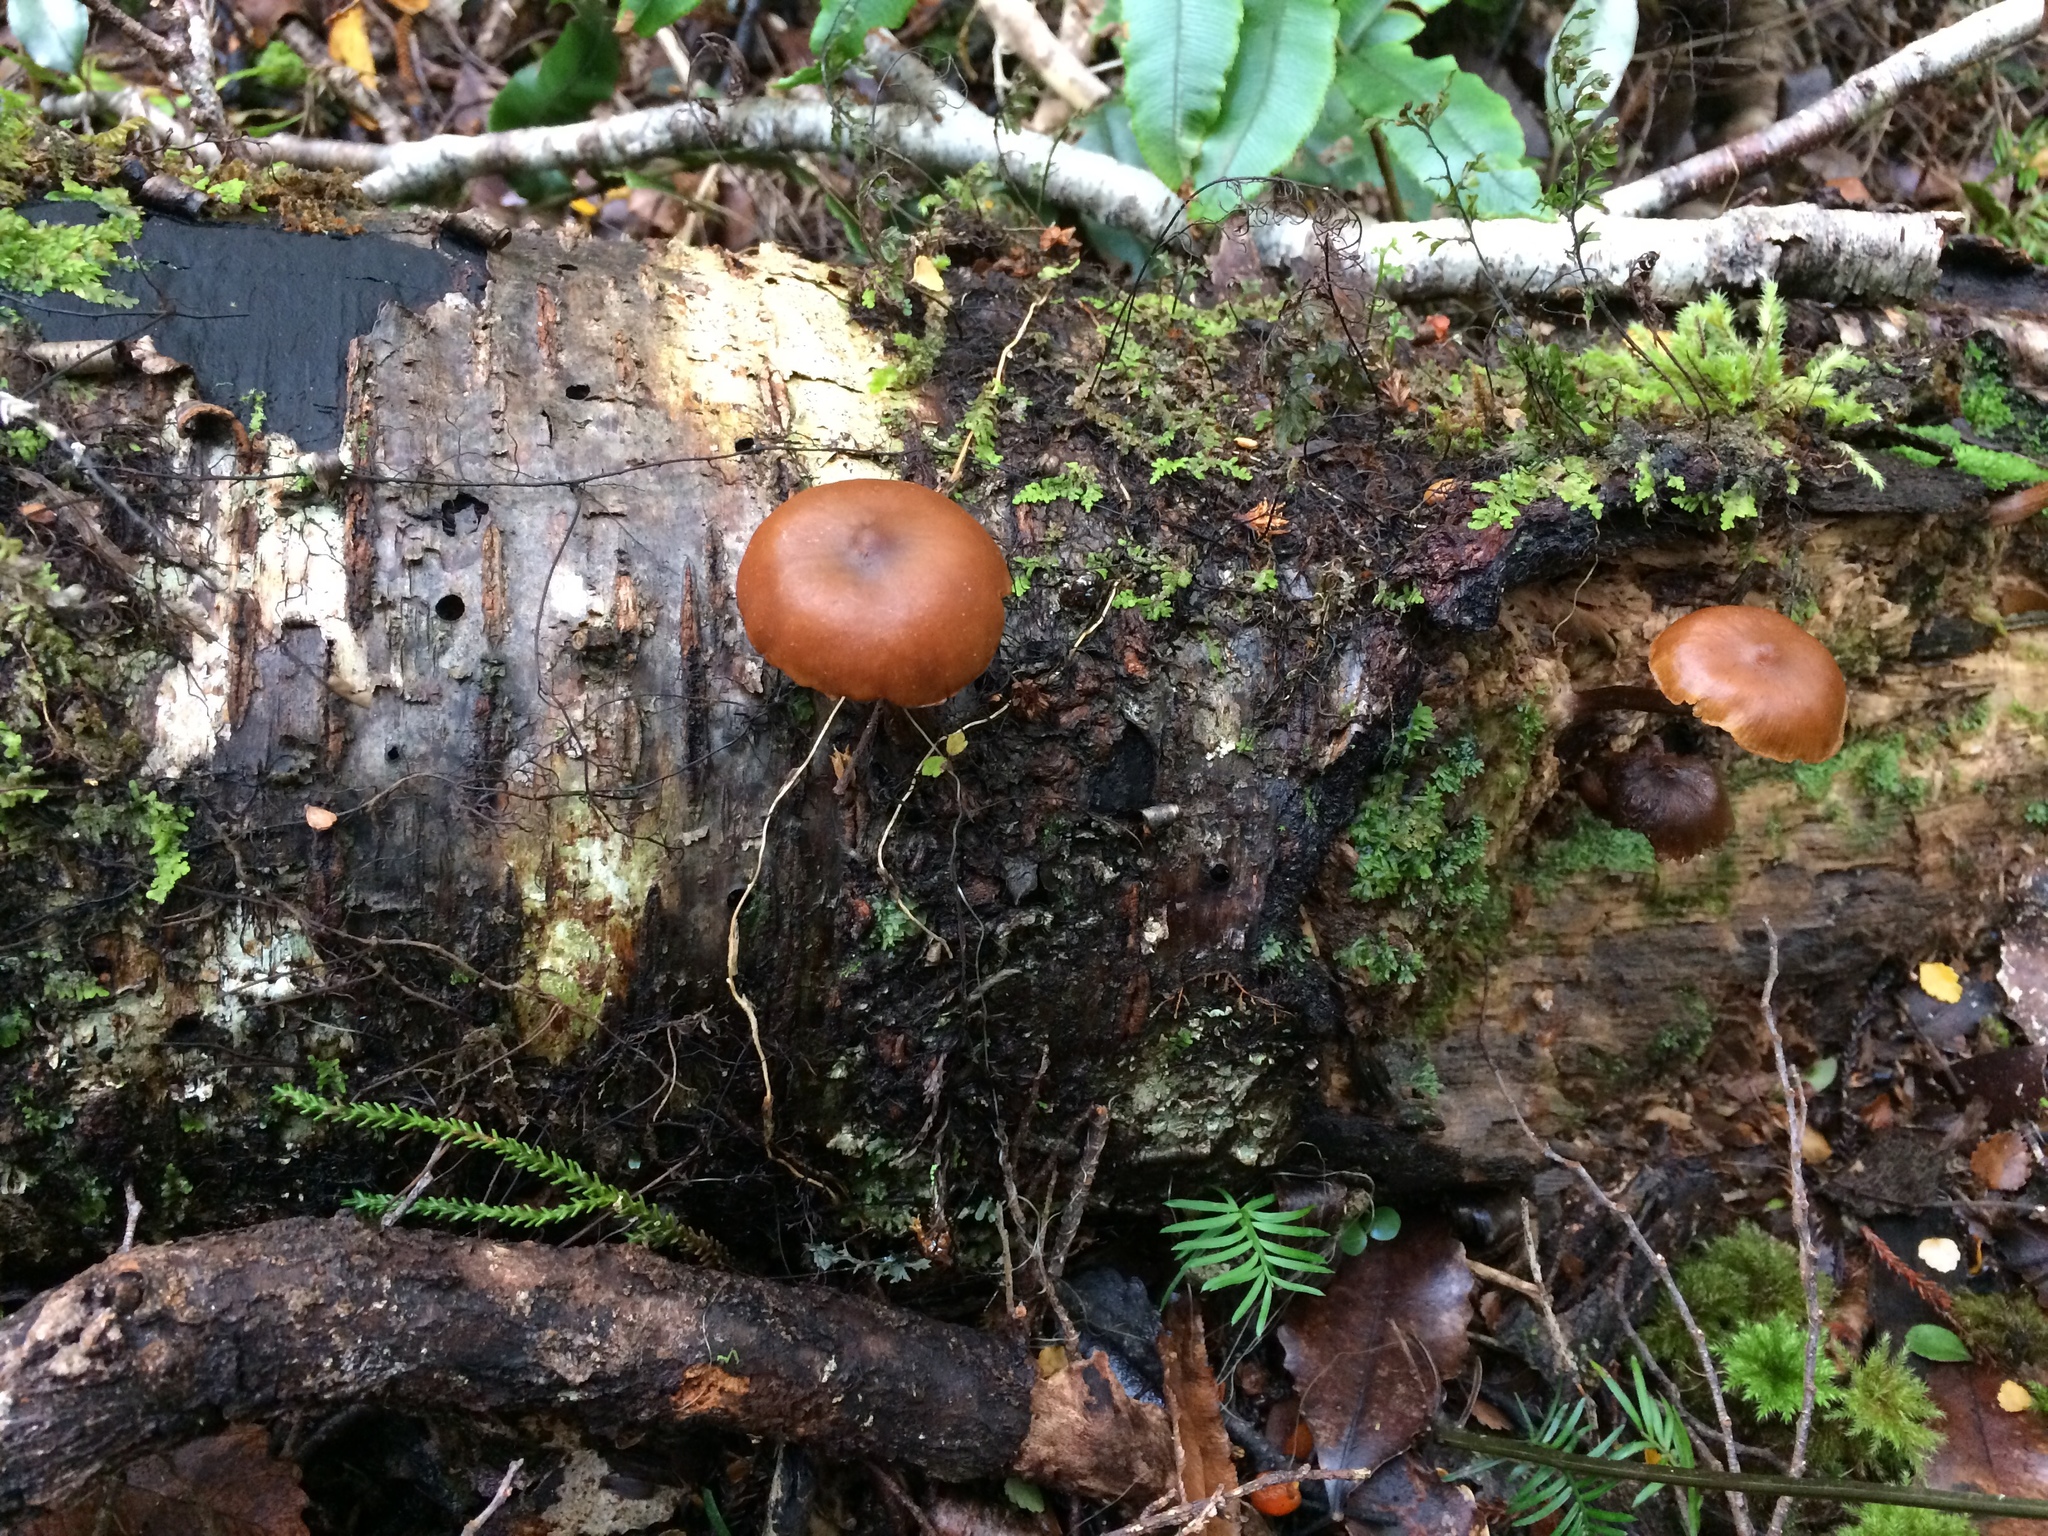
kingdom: Fungi
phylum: Basidiomycota
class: Agaricomycetes
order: Agaricales
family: Hymenogastraceae
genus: Galerina
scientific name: Galerina patagonica
